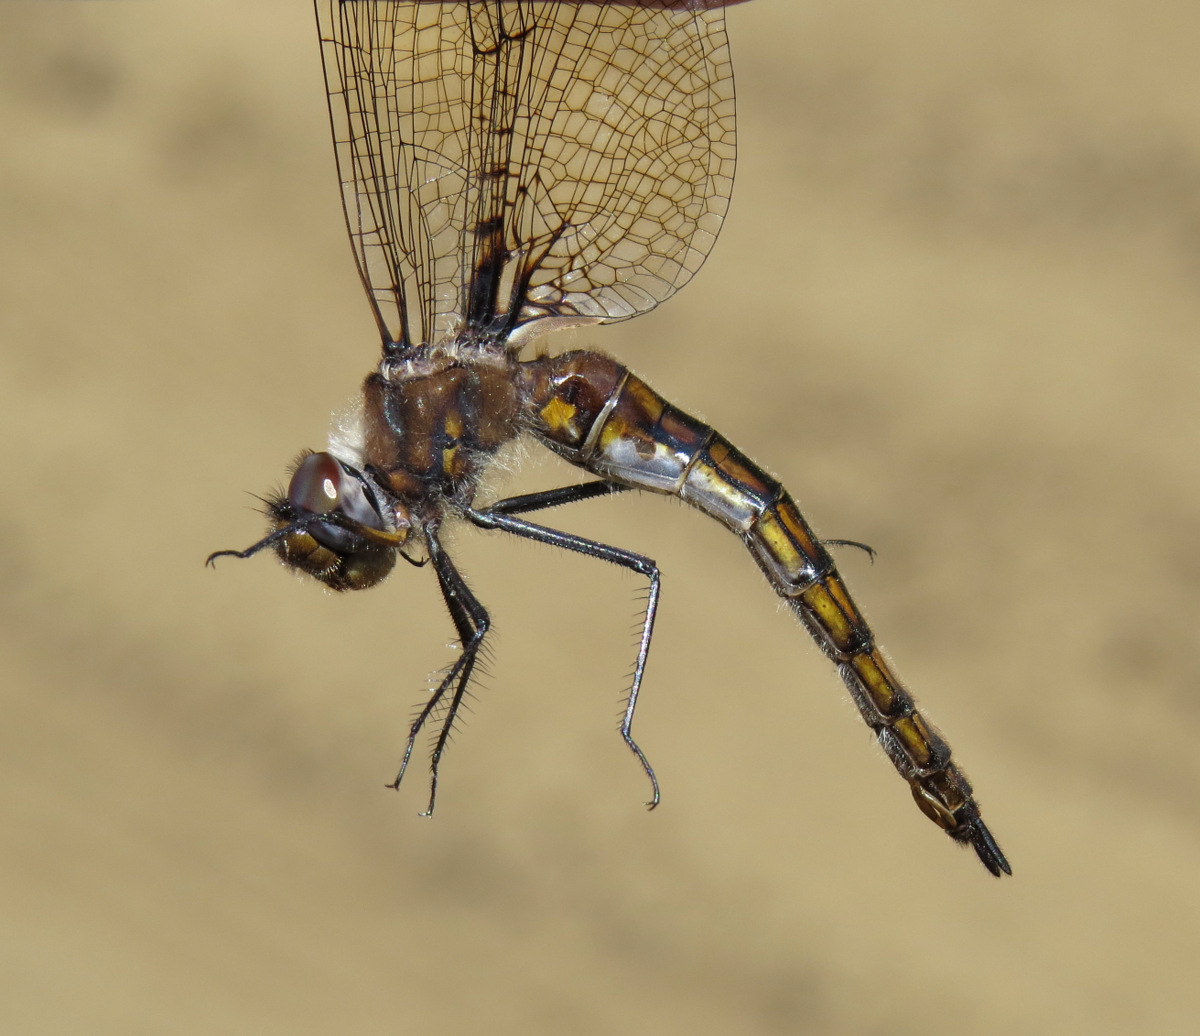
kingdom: Animalia
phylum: Arthropoda
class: Insecta
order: Odonata
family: Corduliidae
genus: Epitheca
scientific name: Epitheca spinigera
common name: Spiny baskettail
